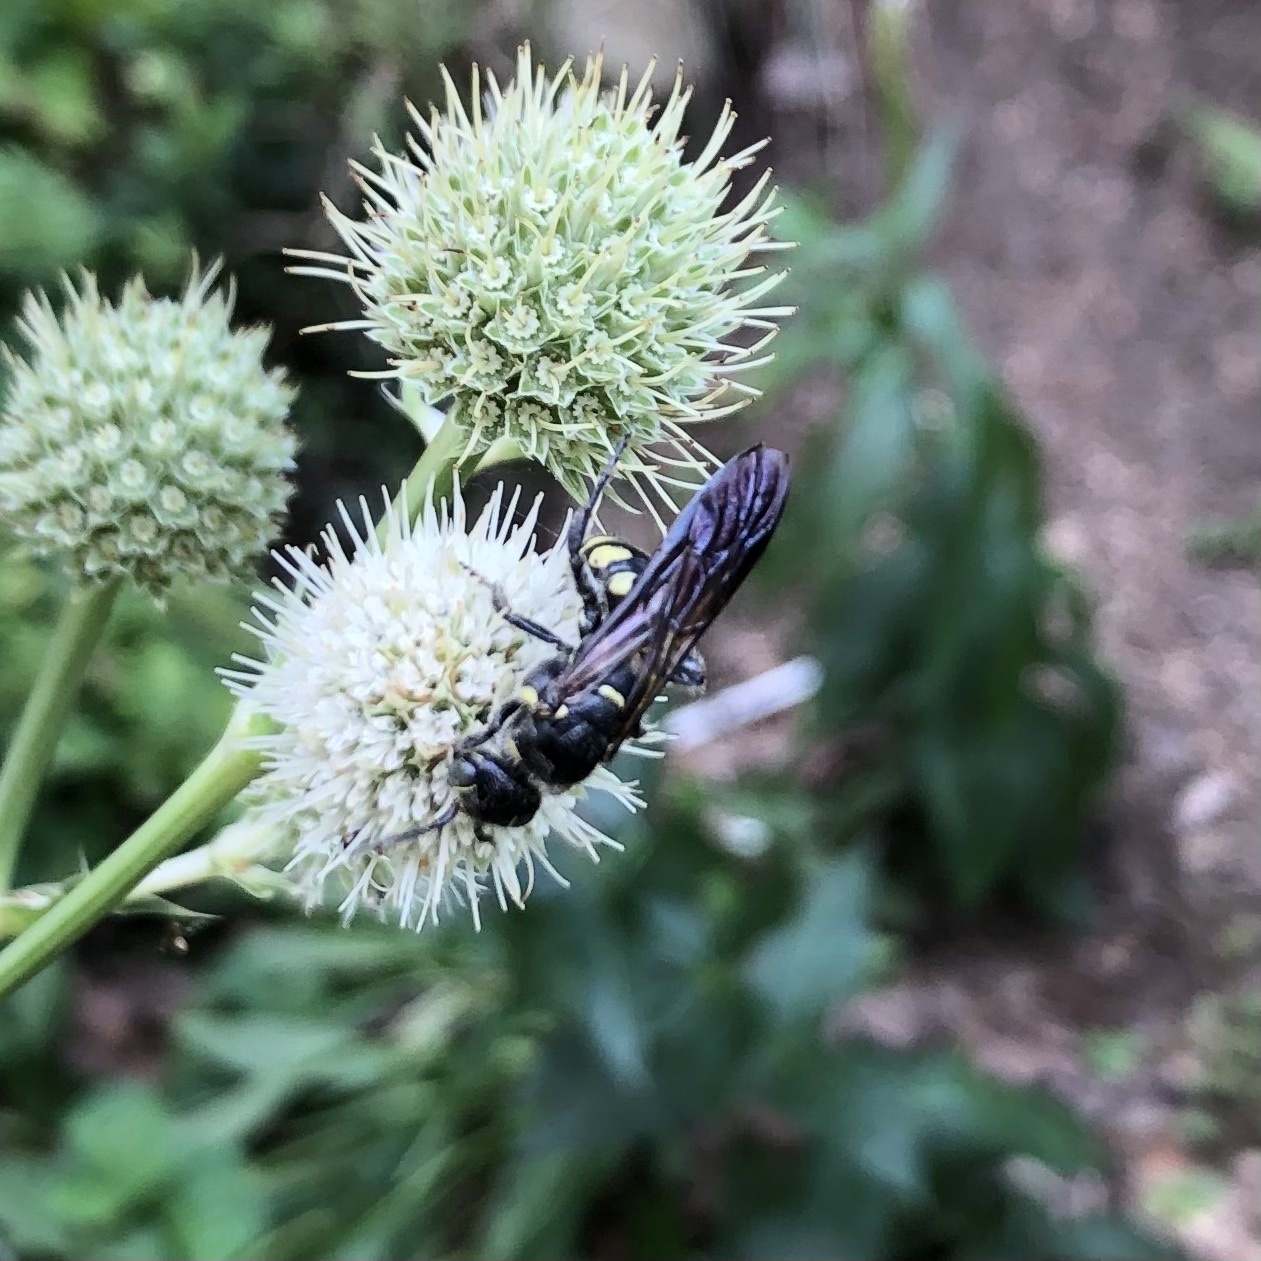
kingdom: Animalia
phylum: Arthropoda
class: Insecta
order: Hymenoptera
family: Tiphiidae
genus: Myzinum
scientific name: Myzinum obscurum
